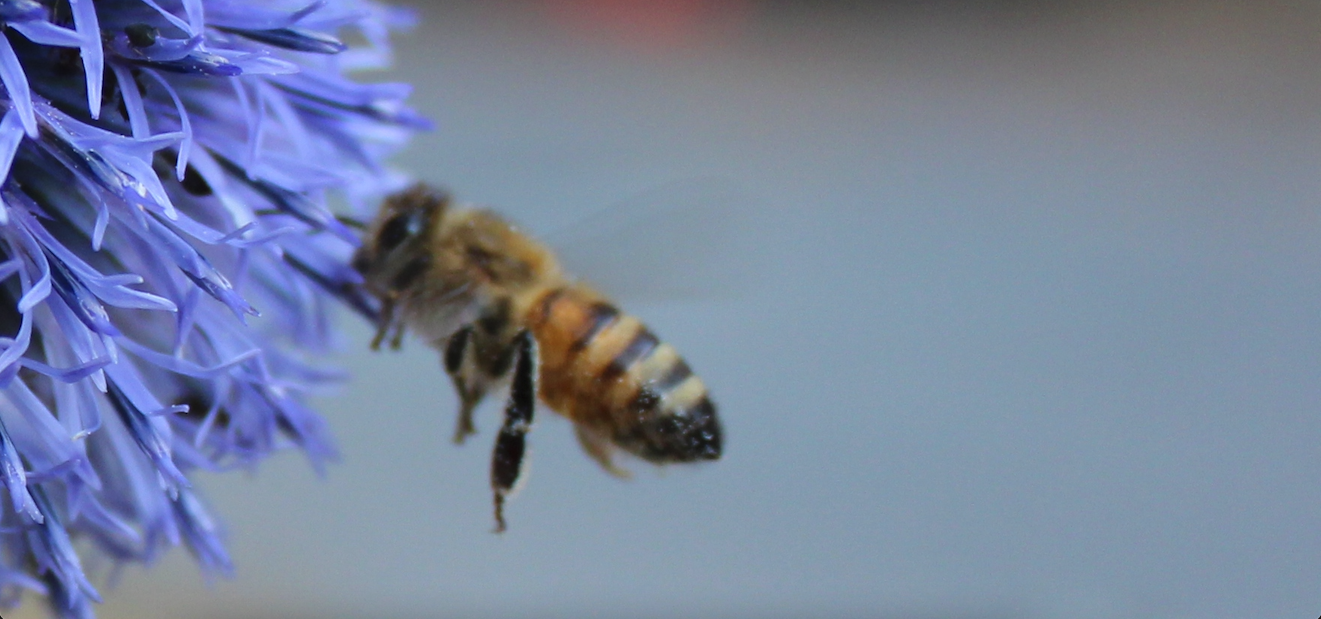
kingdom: Animalia
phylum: Arthropoda
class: Insecta
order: Hymenoptera
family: Apidae
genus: Apis
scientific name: Apis mellifera
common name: Honey bee
